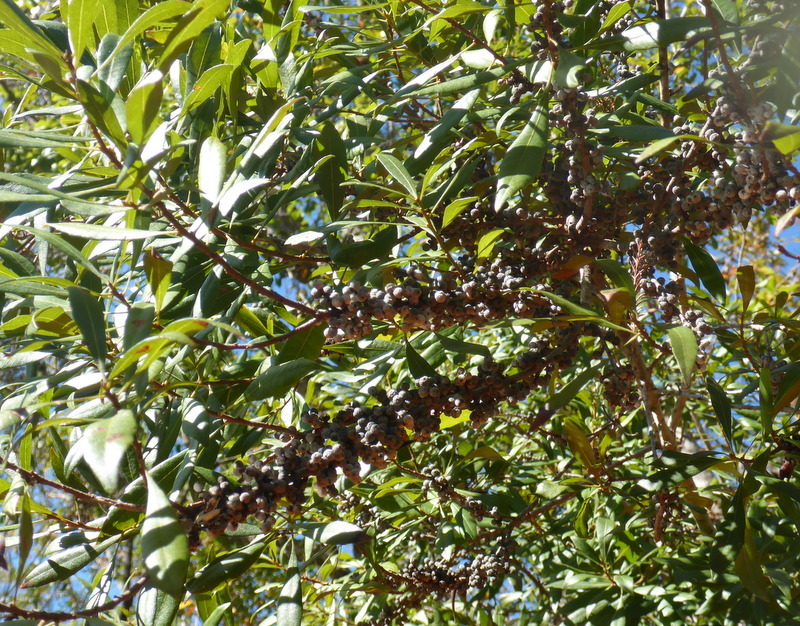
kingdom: Plantae
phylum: Tracheophyta
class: Magnoliopsida
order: Fagales
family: Myricaceae
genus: Morella
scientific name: Morella cerifera
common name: Wax myrtle
